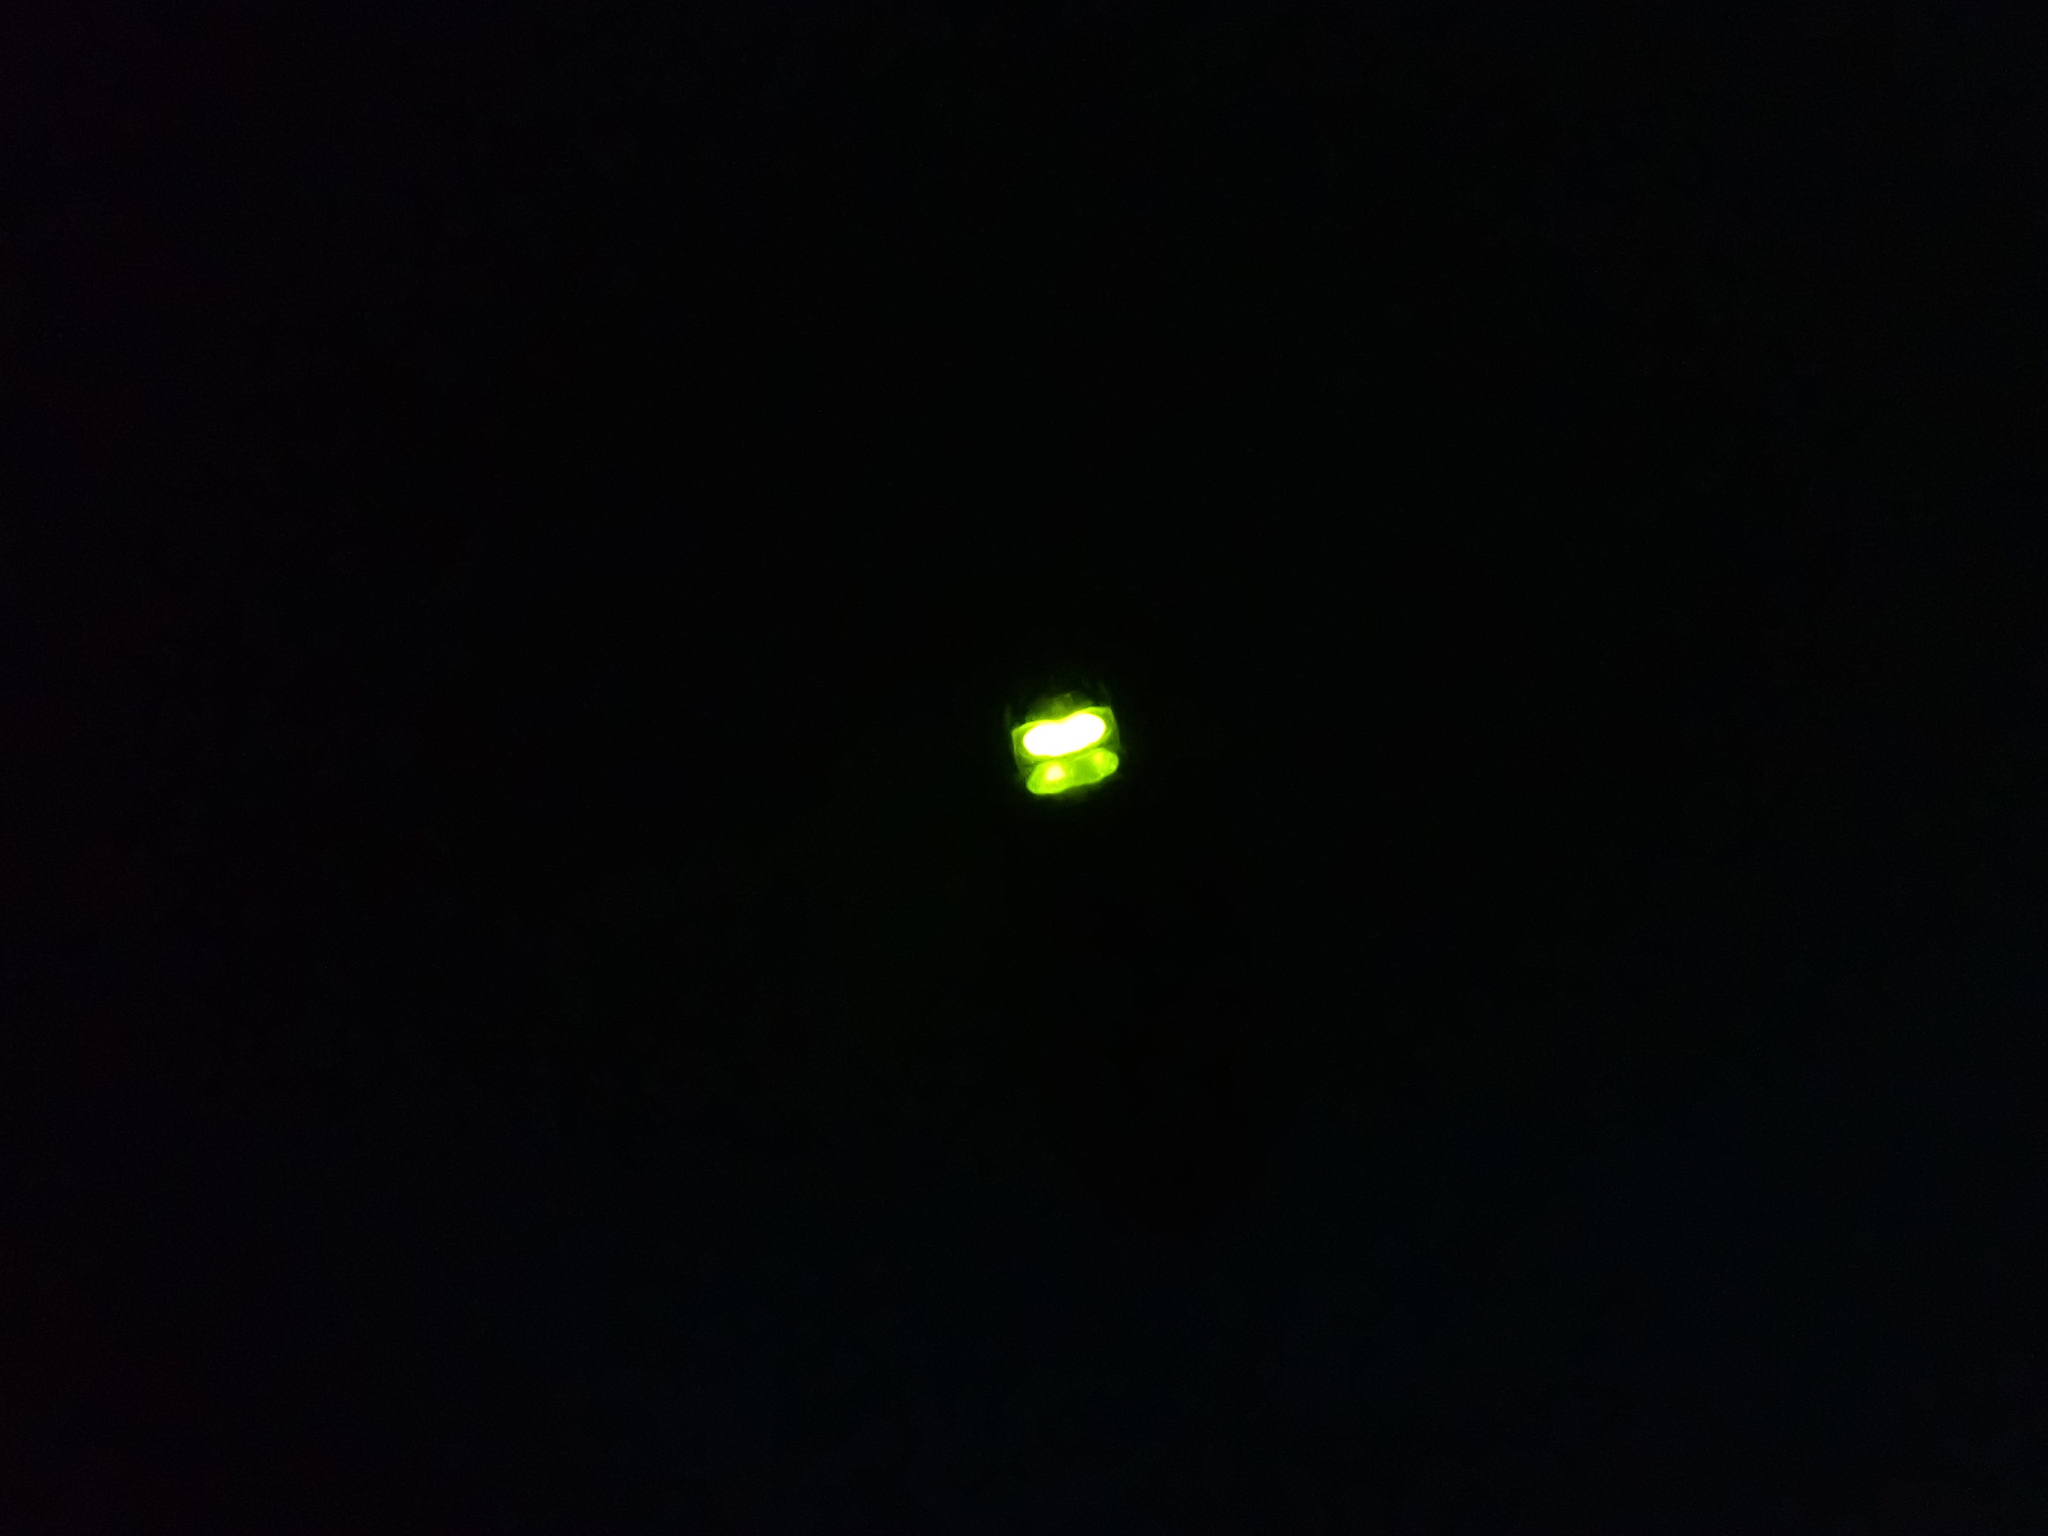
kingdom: Animalia
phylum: Arthropoda
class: Insecta
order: Coleoptera
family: Lampyridae
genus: Lamprohiza
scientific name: Lamprohiza splendidula
